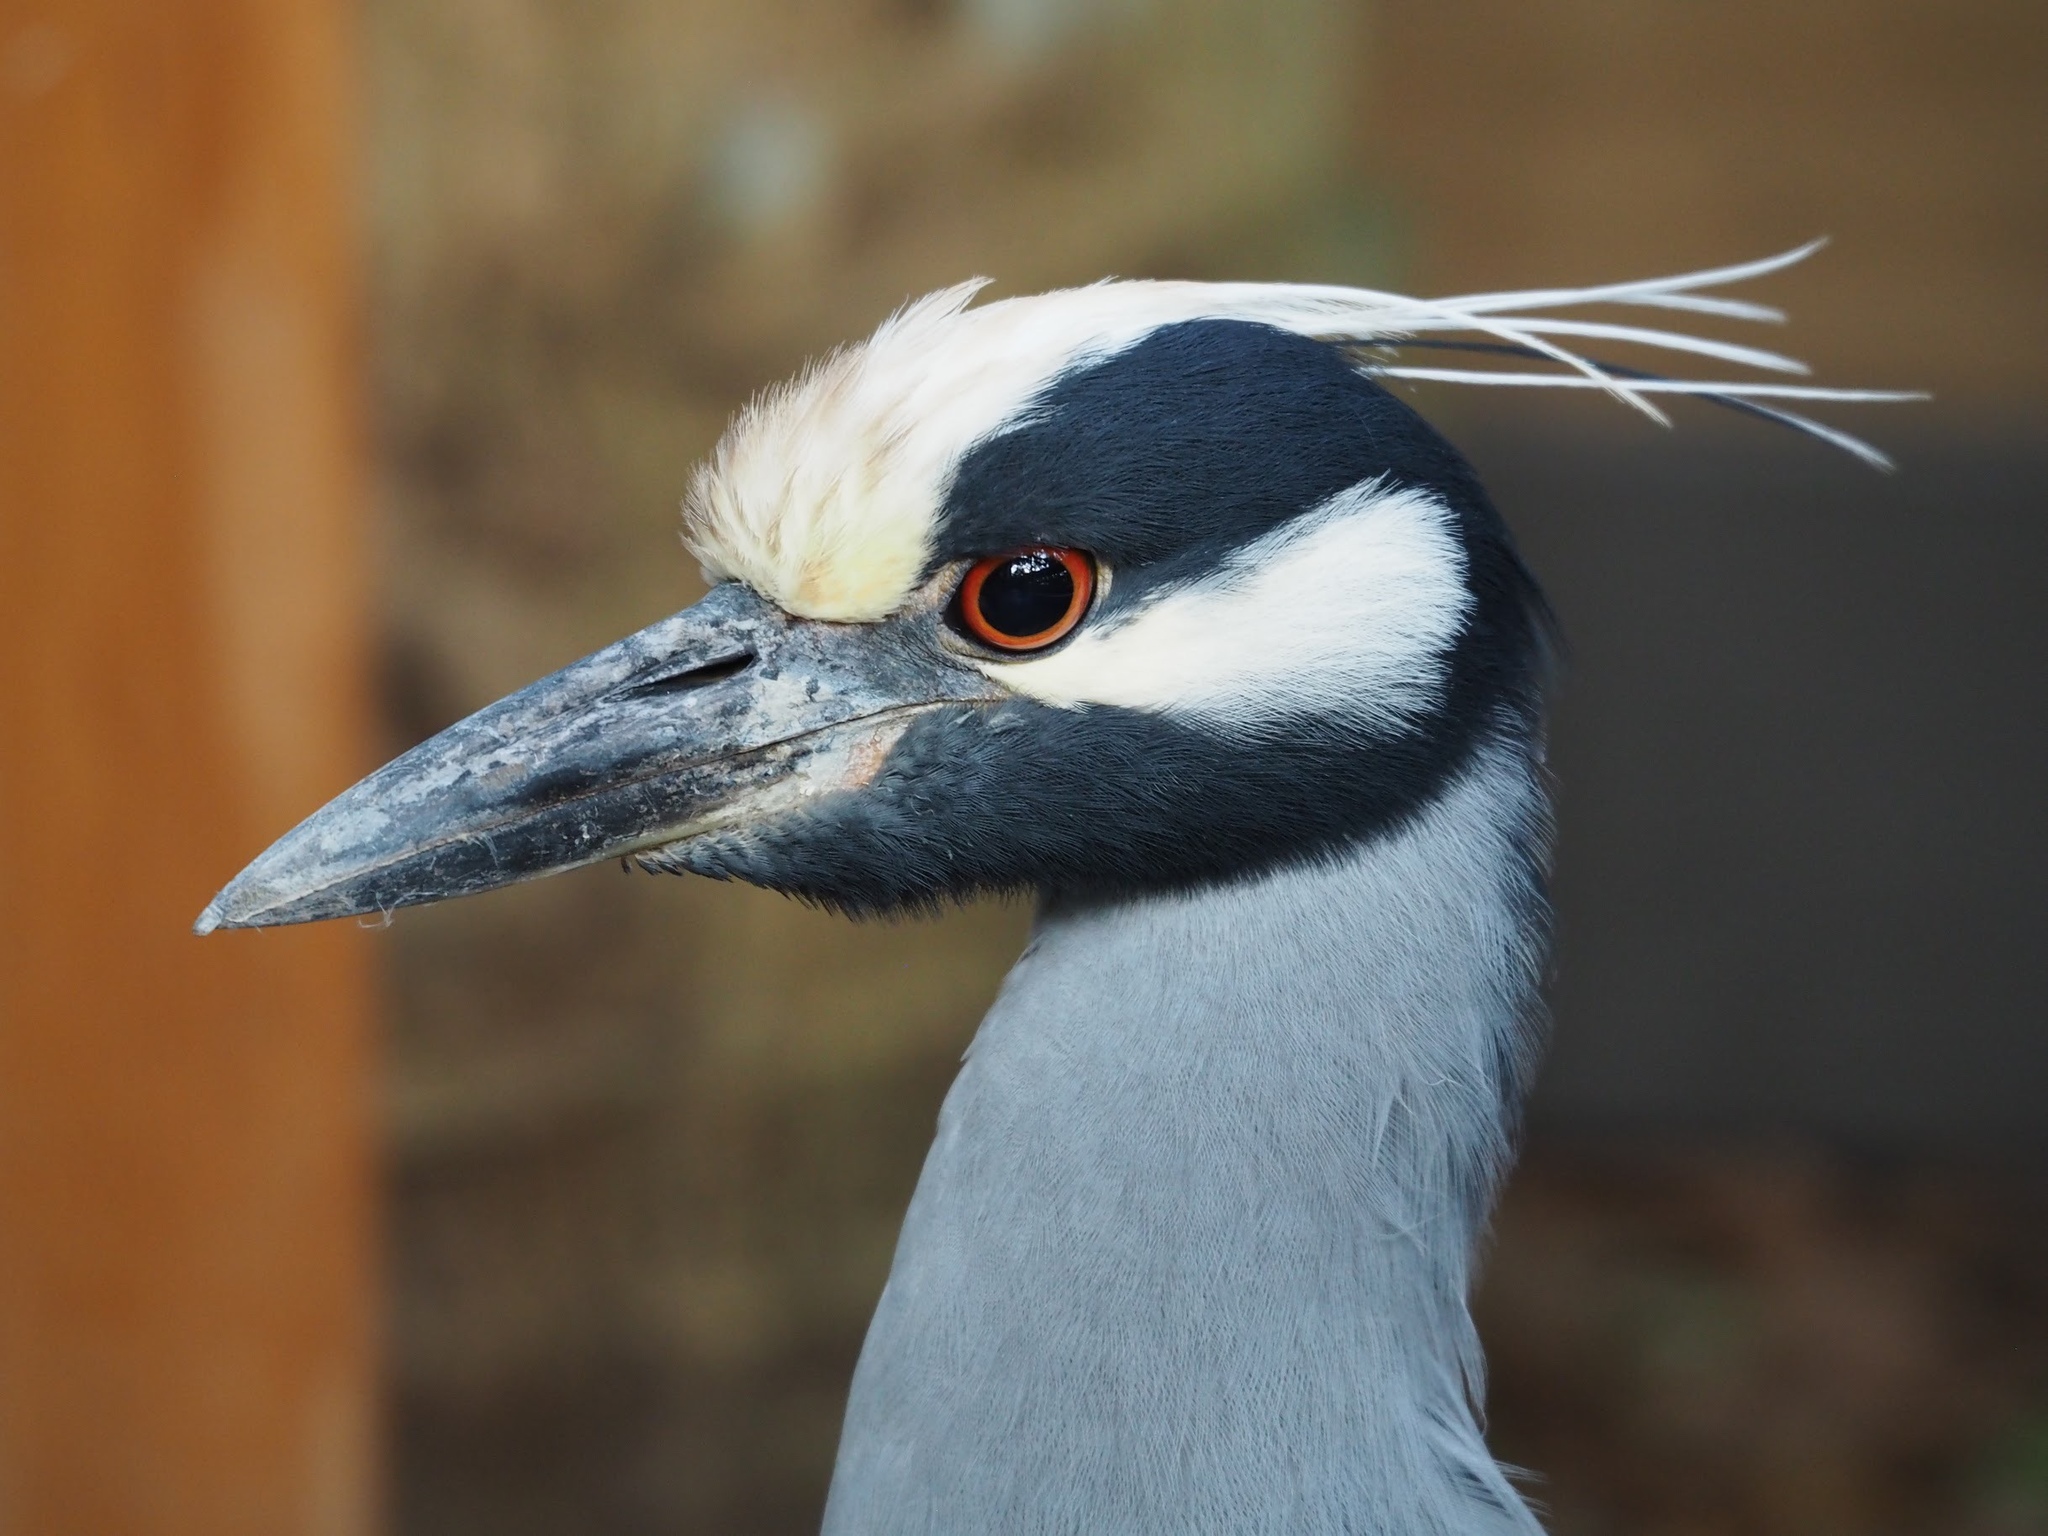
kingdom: Animalia
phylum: Chordata
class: Aves
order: Pelecaniformes
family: Ardeidae
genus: Nyctanassa
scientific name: Nyctanassa violacea
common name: Yellow-crowned night heron
